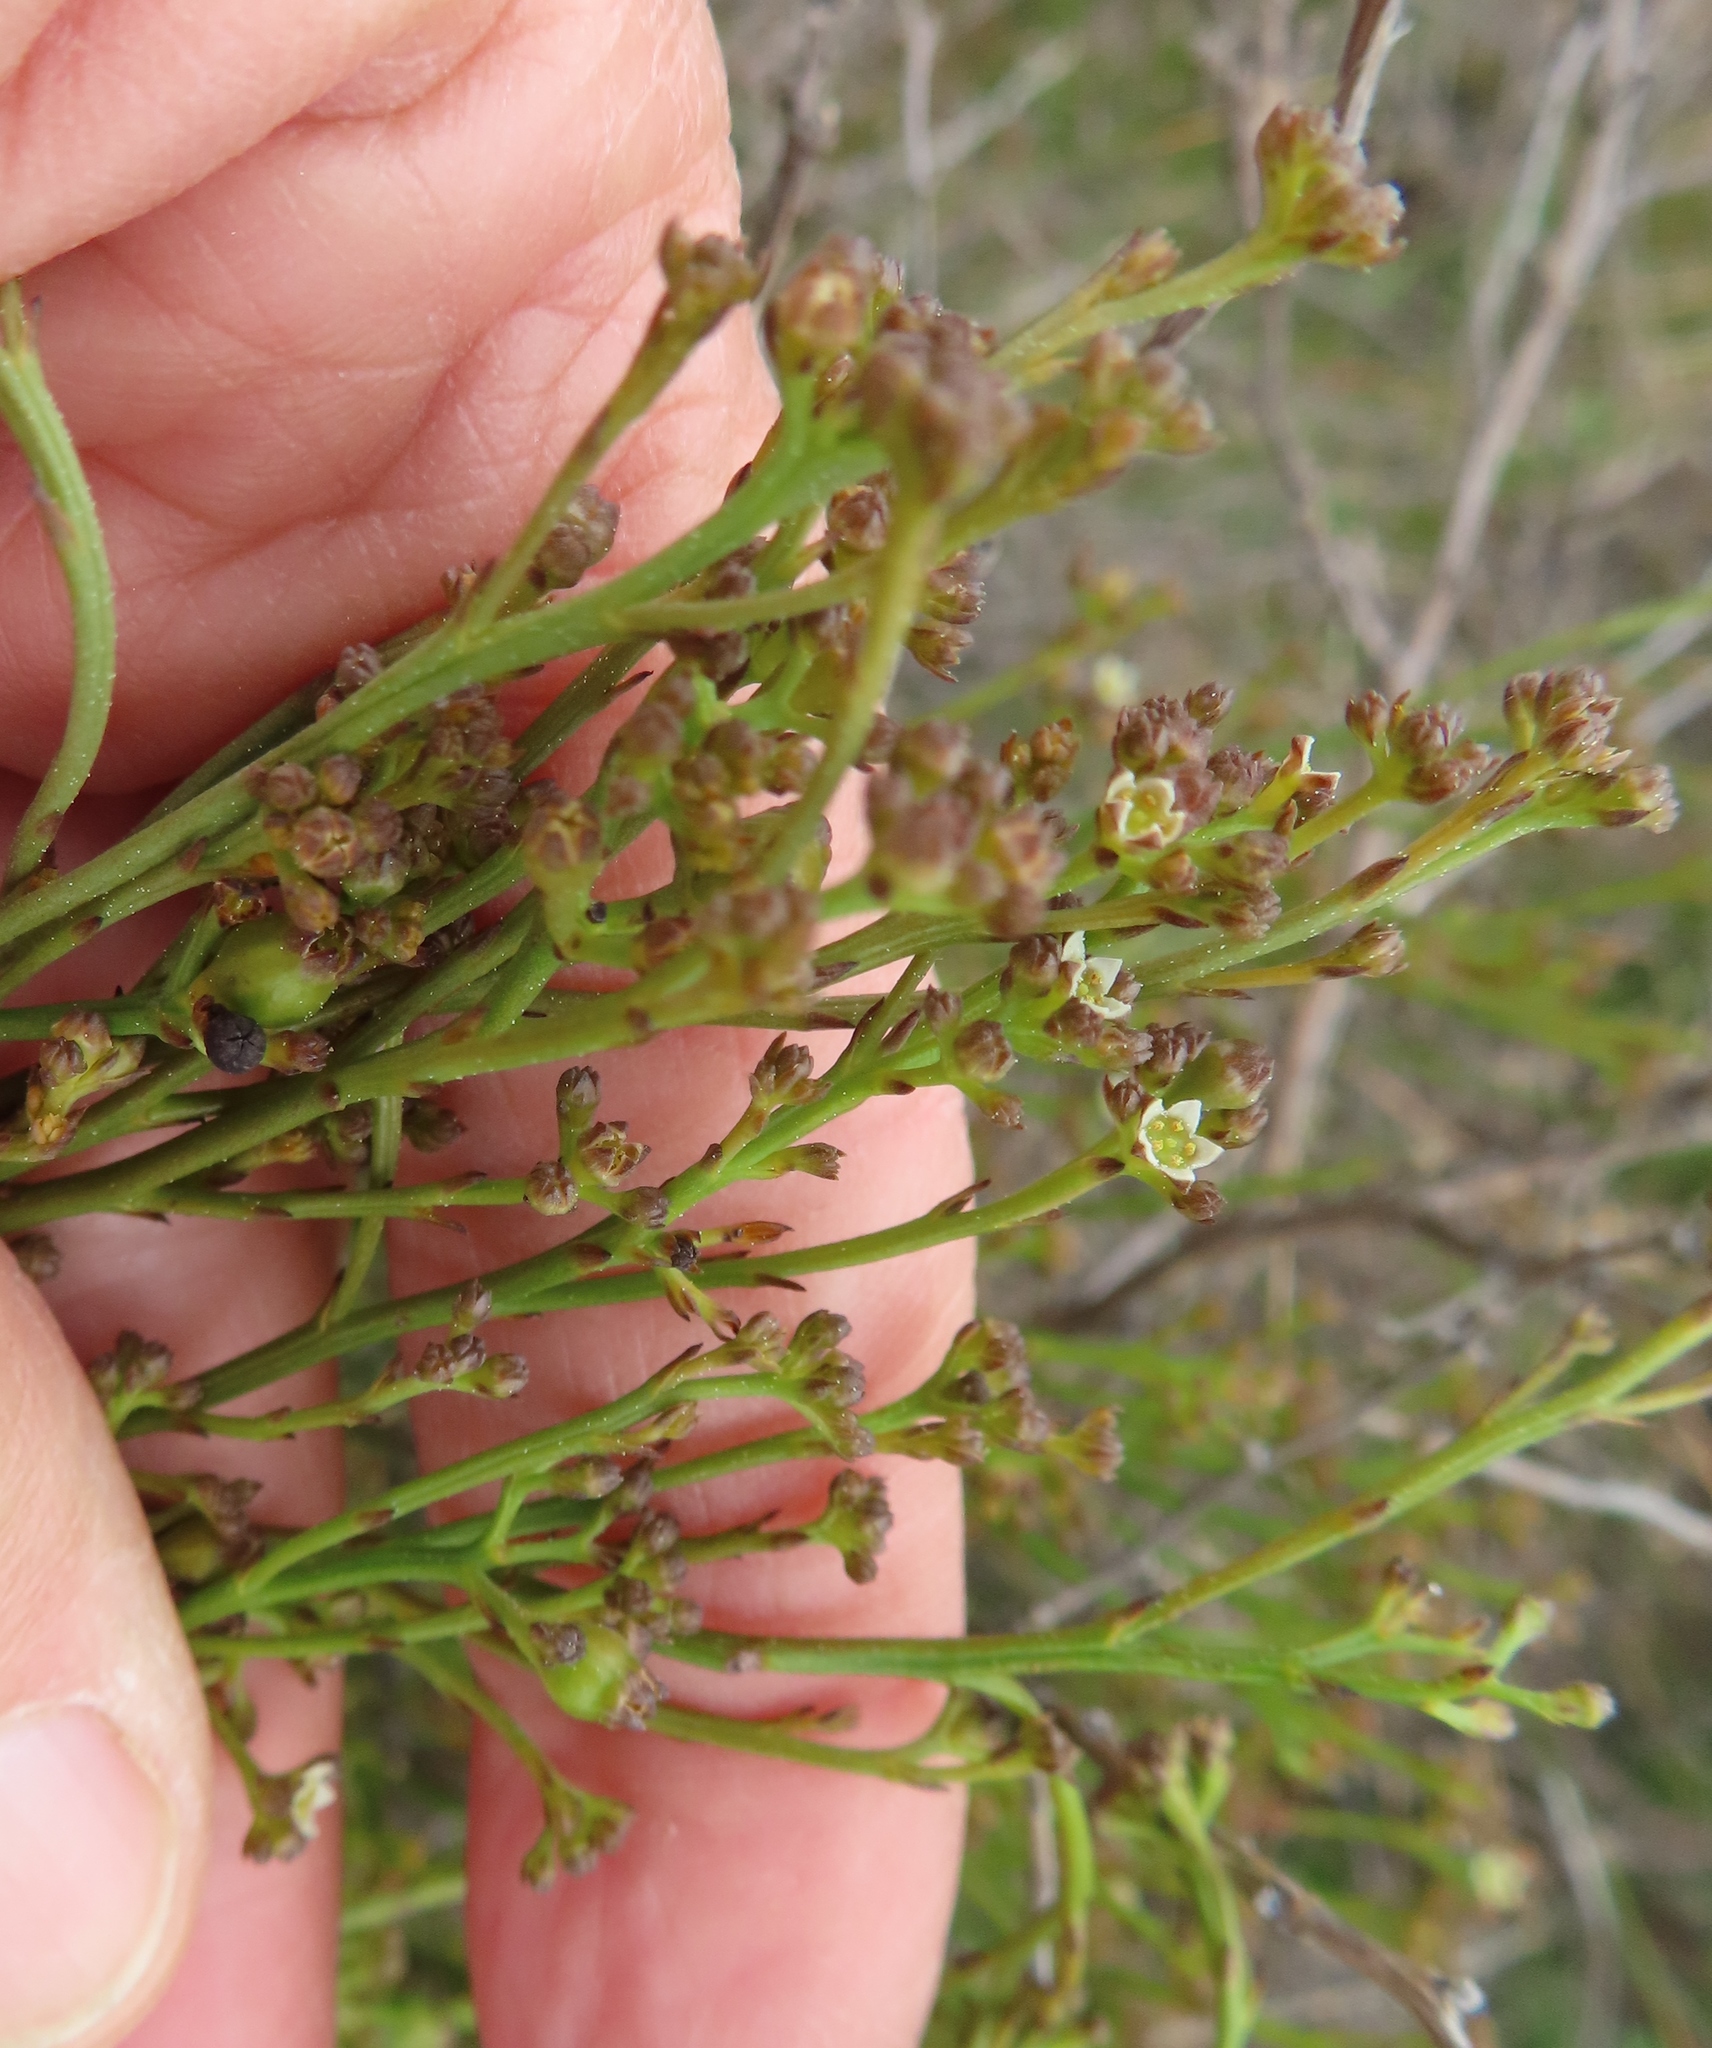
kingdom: Plantae
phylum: Tracheophyta
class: Magnoliopsida
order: Santalales
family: Thesiaceae
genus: Thesium
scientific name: Thesium pseudovirgatum
